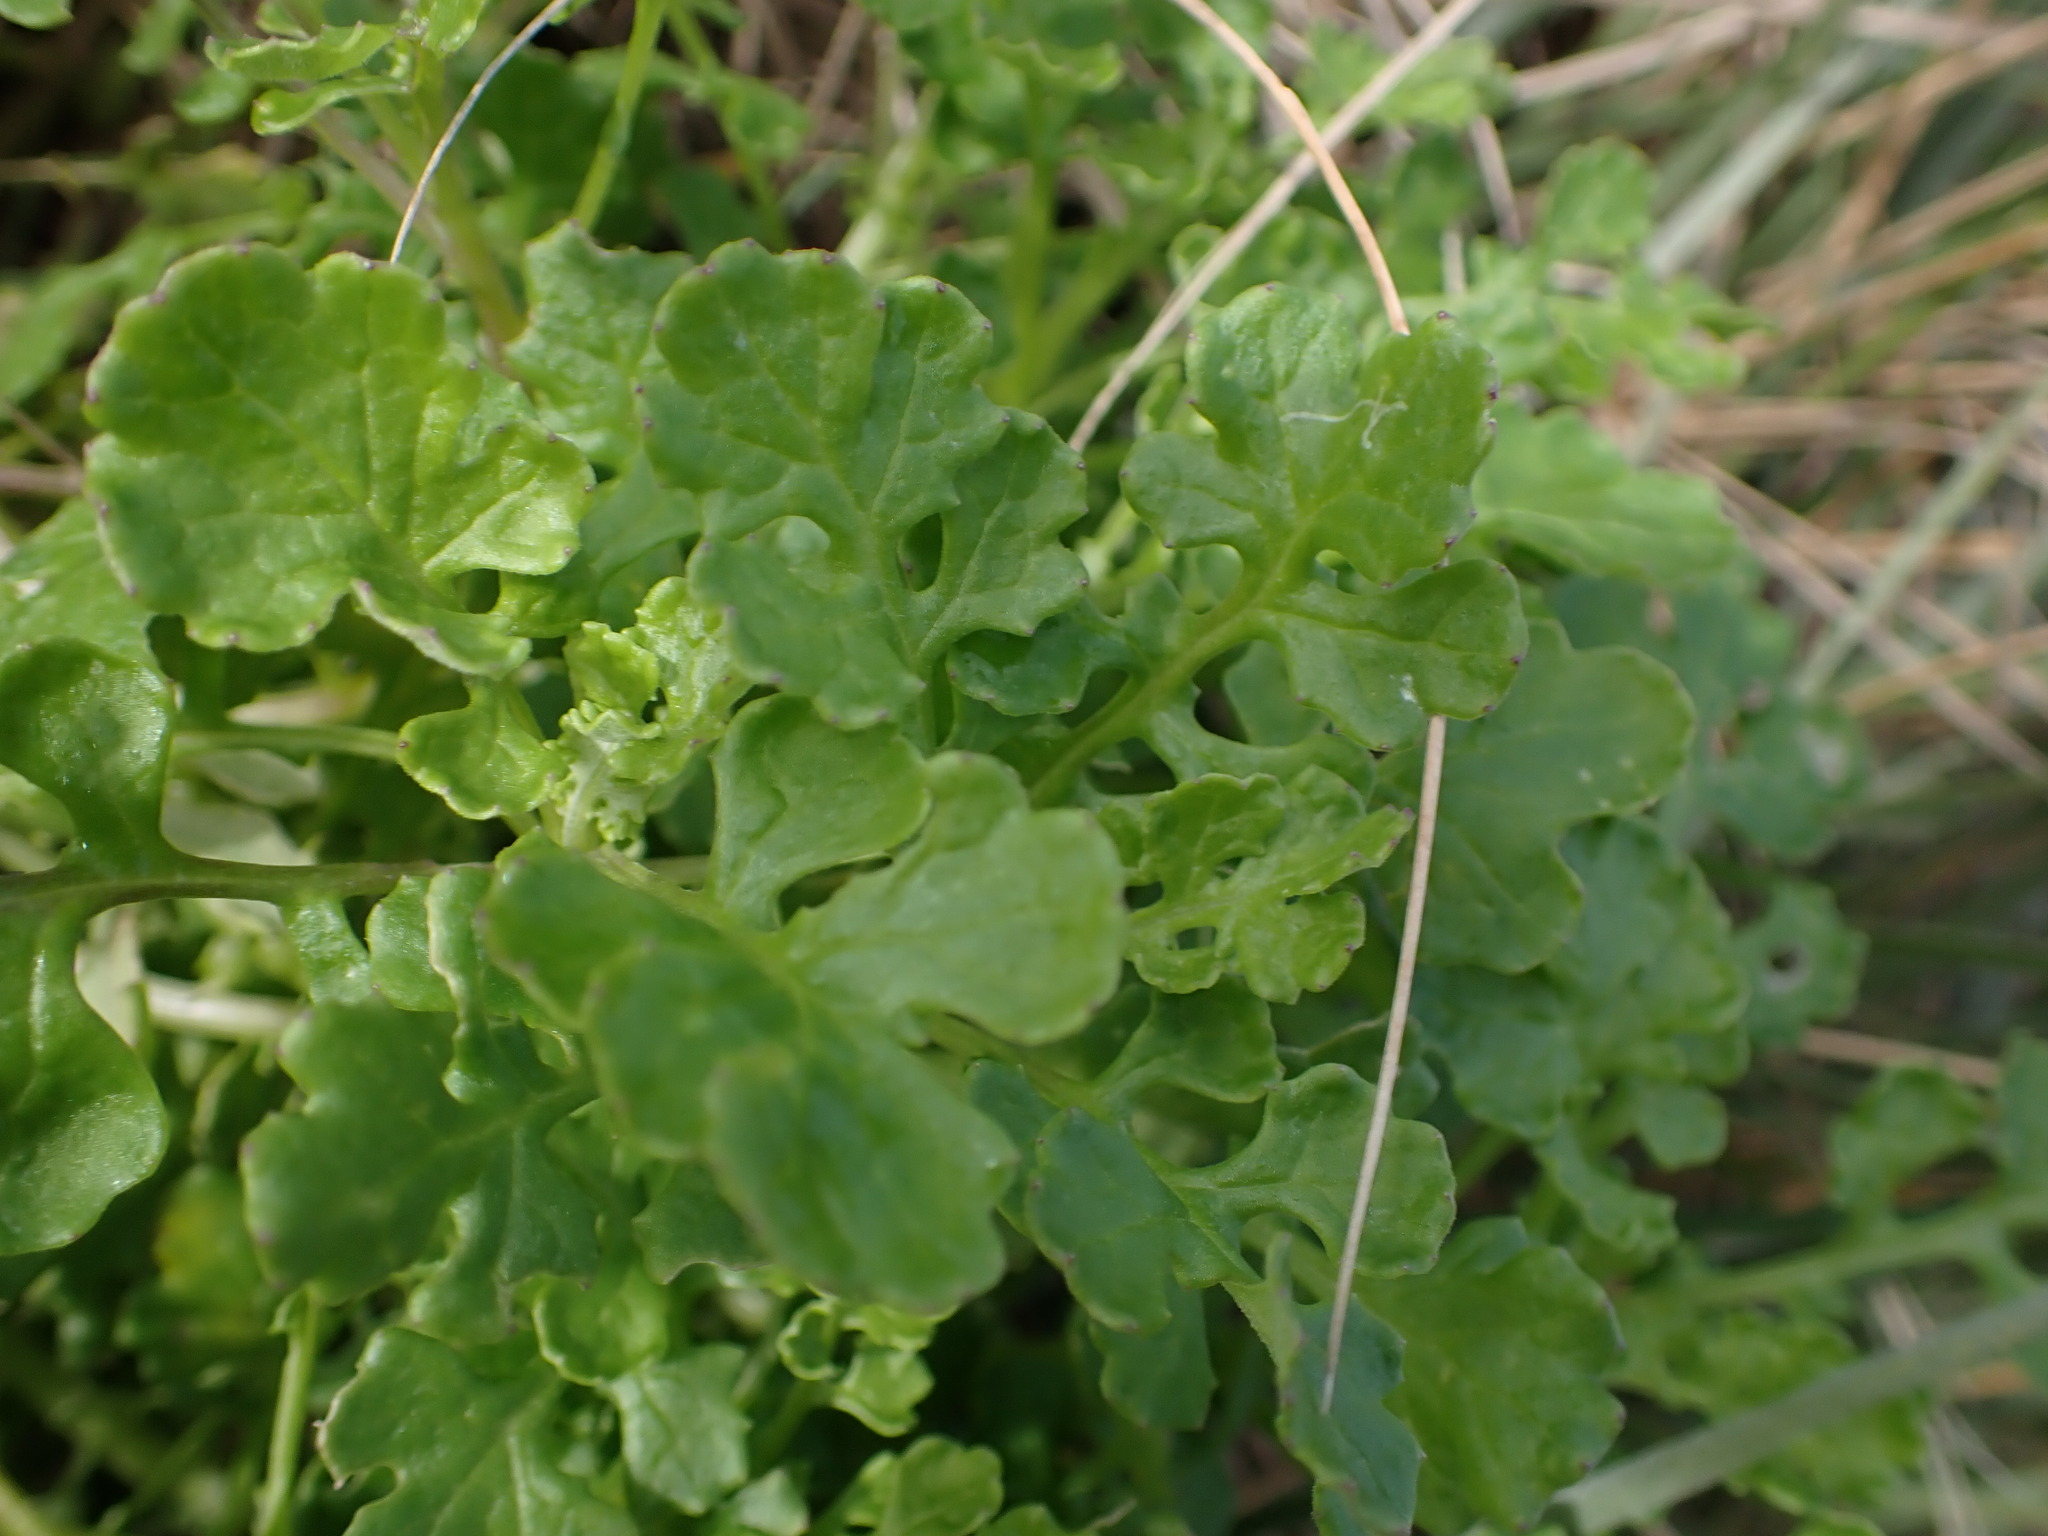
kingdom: Plantae
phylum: Tracheophyta
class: Magnoliopsida
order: Asterales
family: Asteraceae
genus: Senecio
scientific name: Senecio elegans
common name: Purple groundsel
